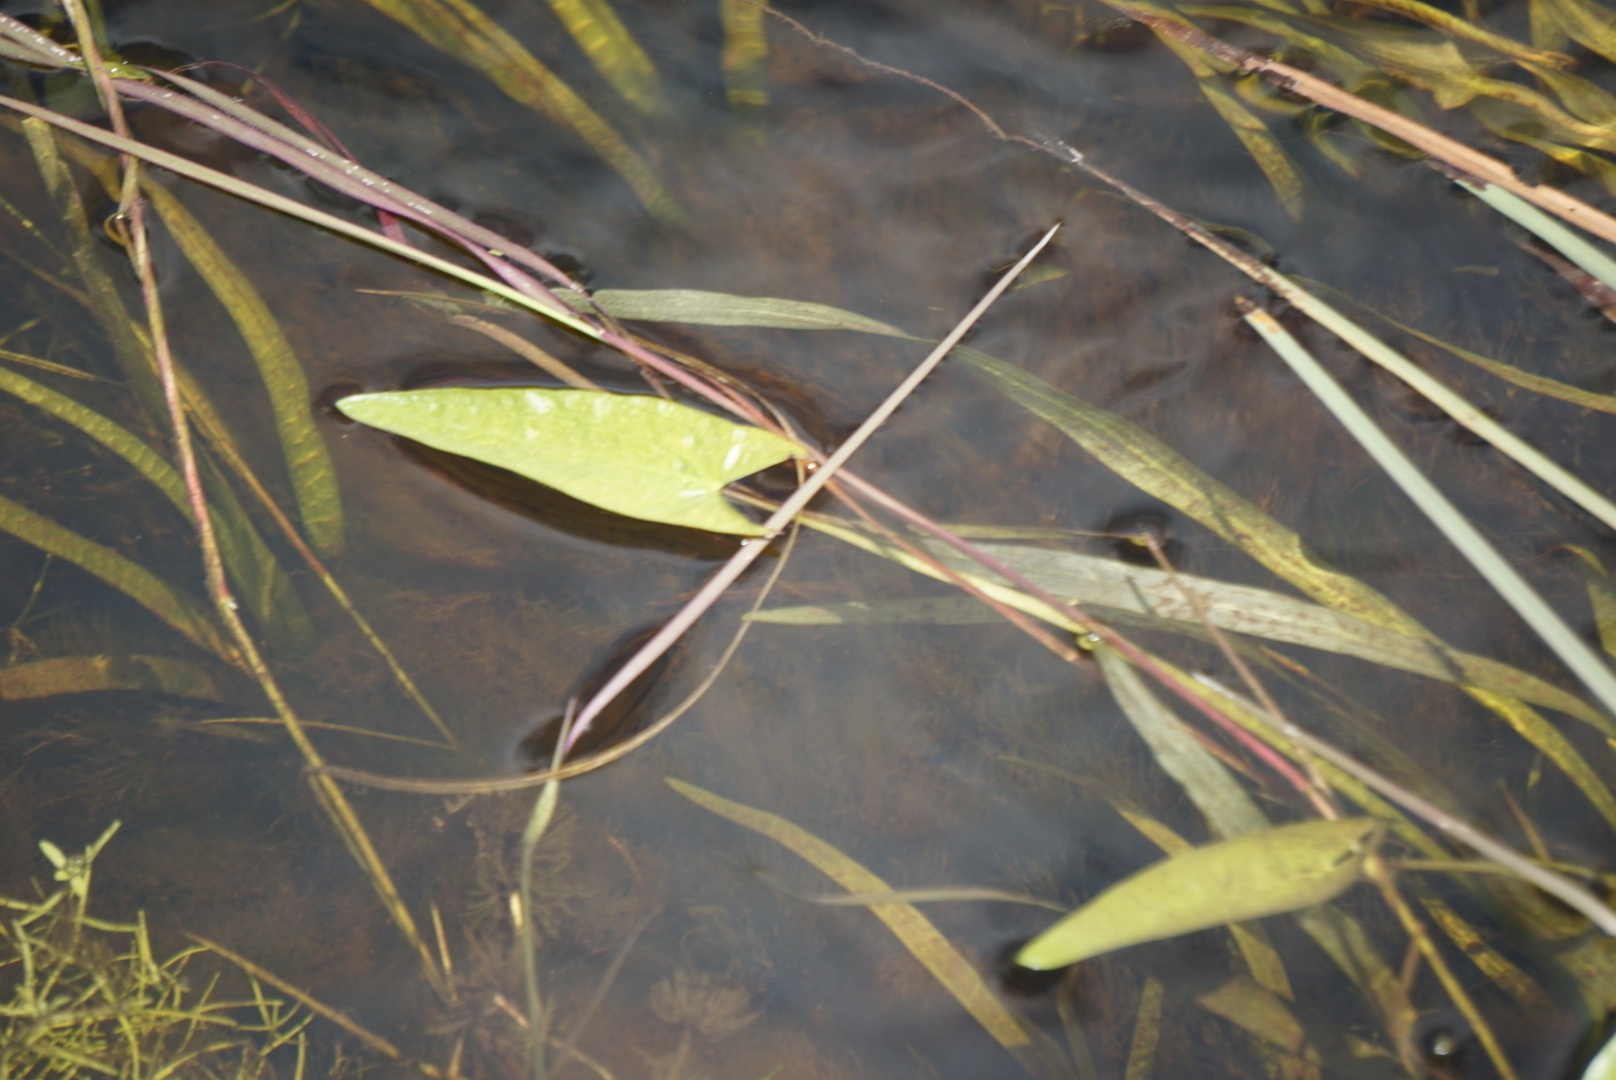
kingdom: Plantae
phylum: Tracheophyta
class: Liliopsida
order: Alismatales
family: Alismataceae
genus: Sagittaria
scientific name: Sagittaria cuneata
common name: Northern arrowhead
